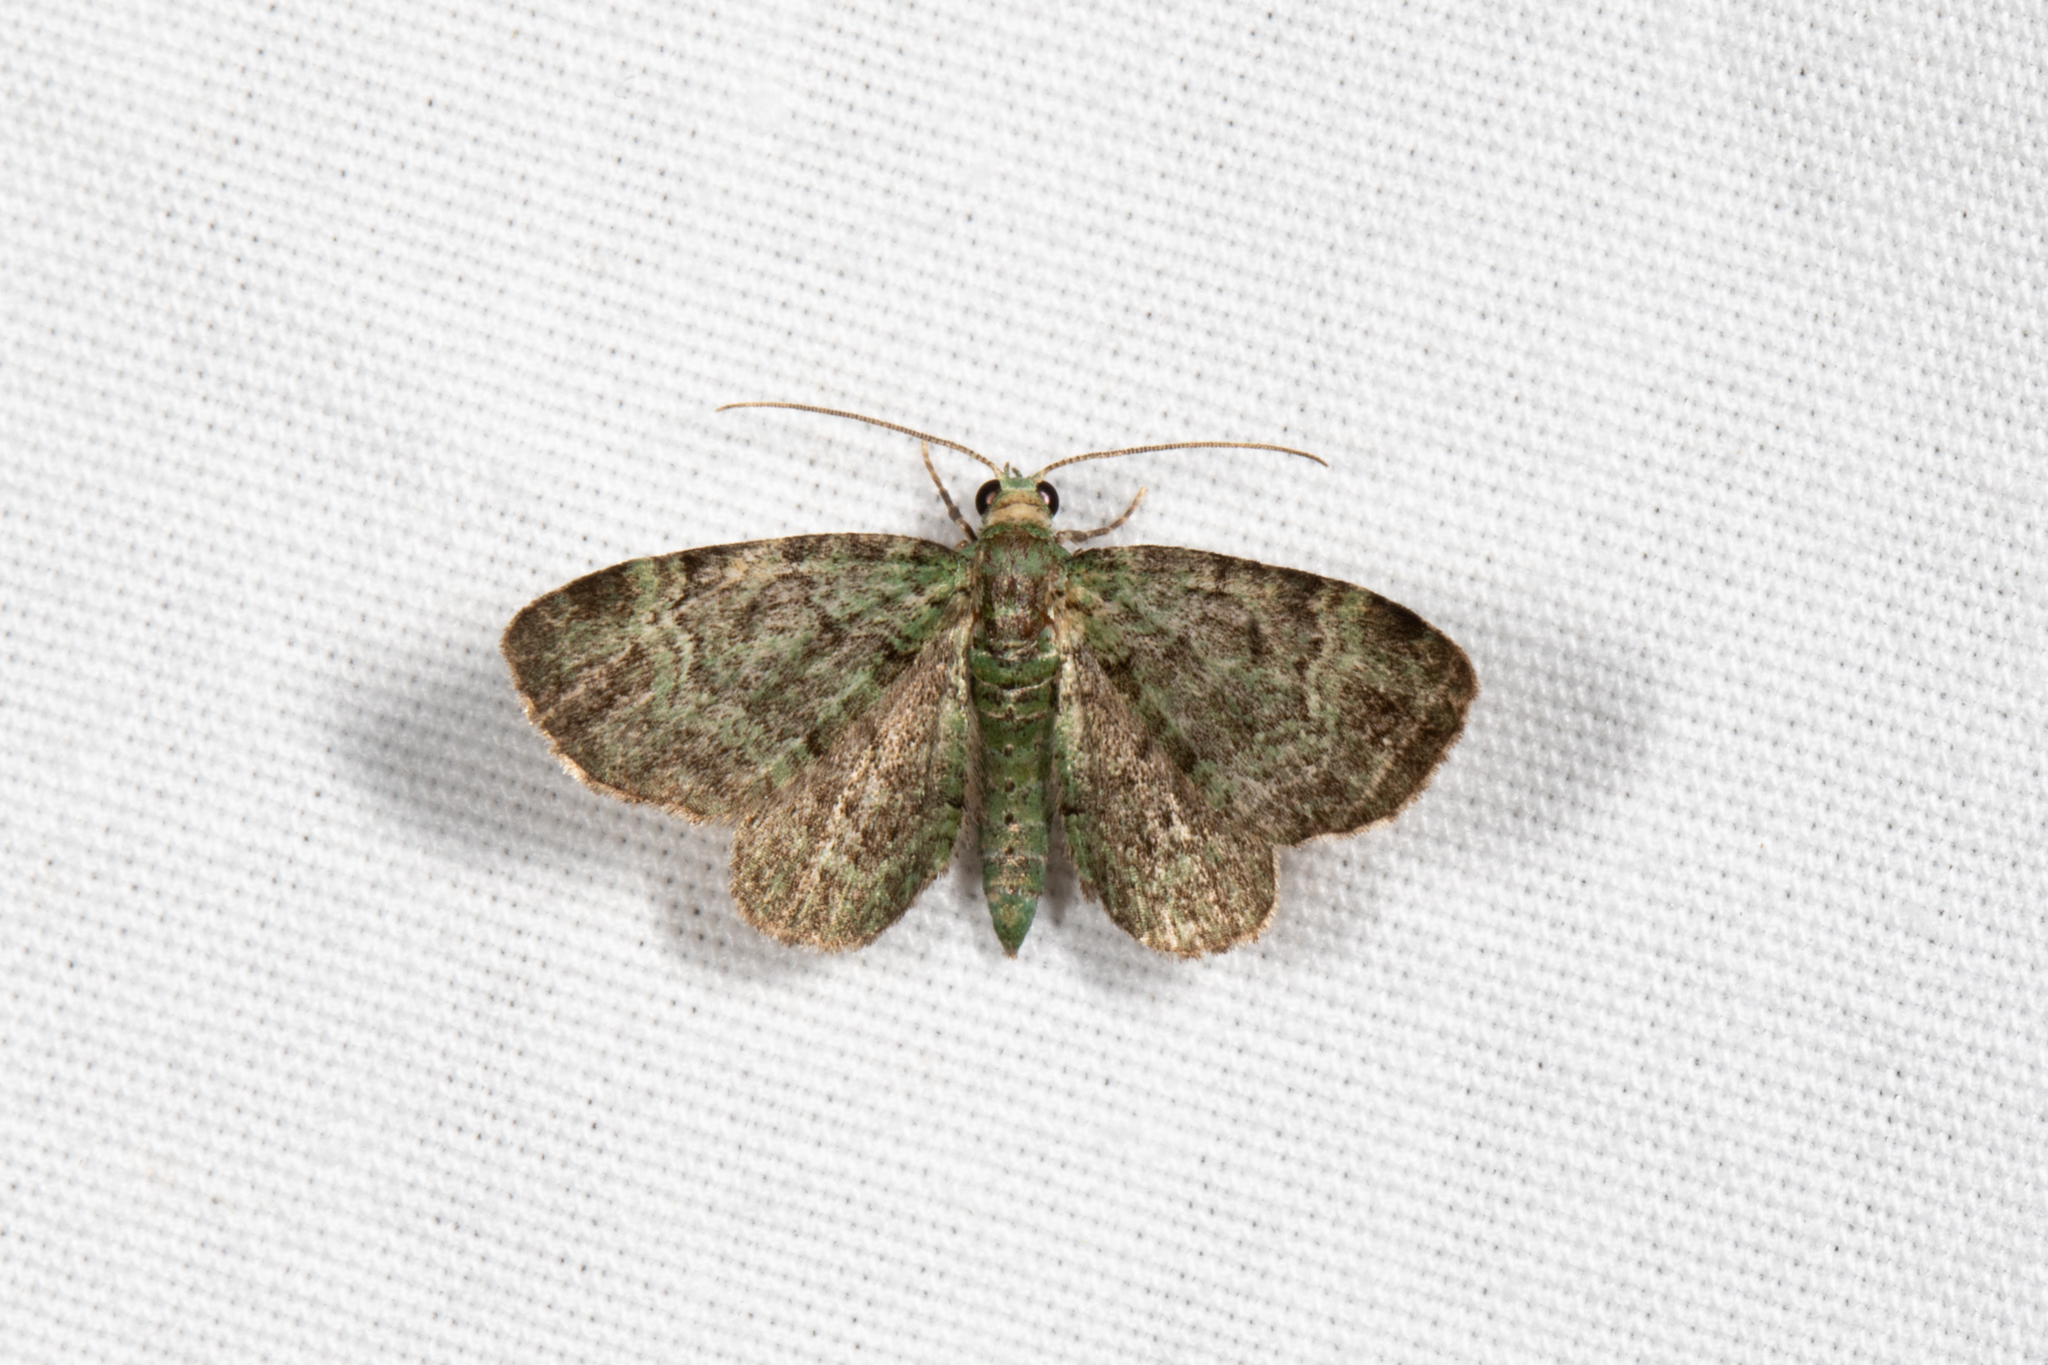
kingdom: Animalia
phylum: Arthropoda
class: Insecta
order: Lepidoptera
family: Geometridae
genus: Pasiphila
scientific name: Pasiphila rectangulata
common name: Green pug
